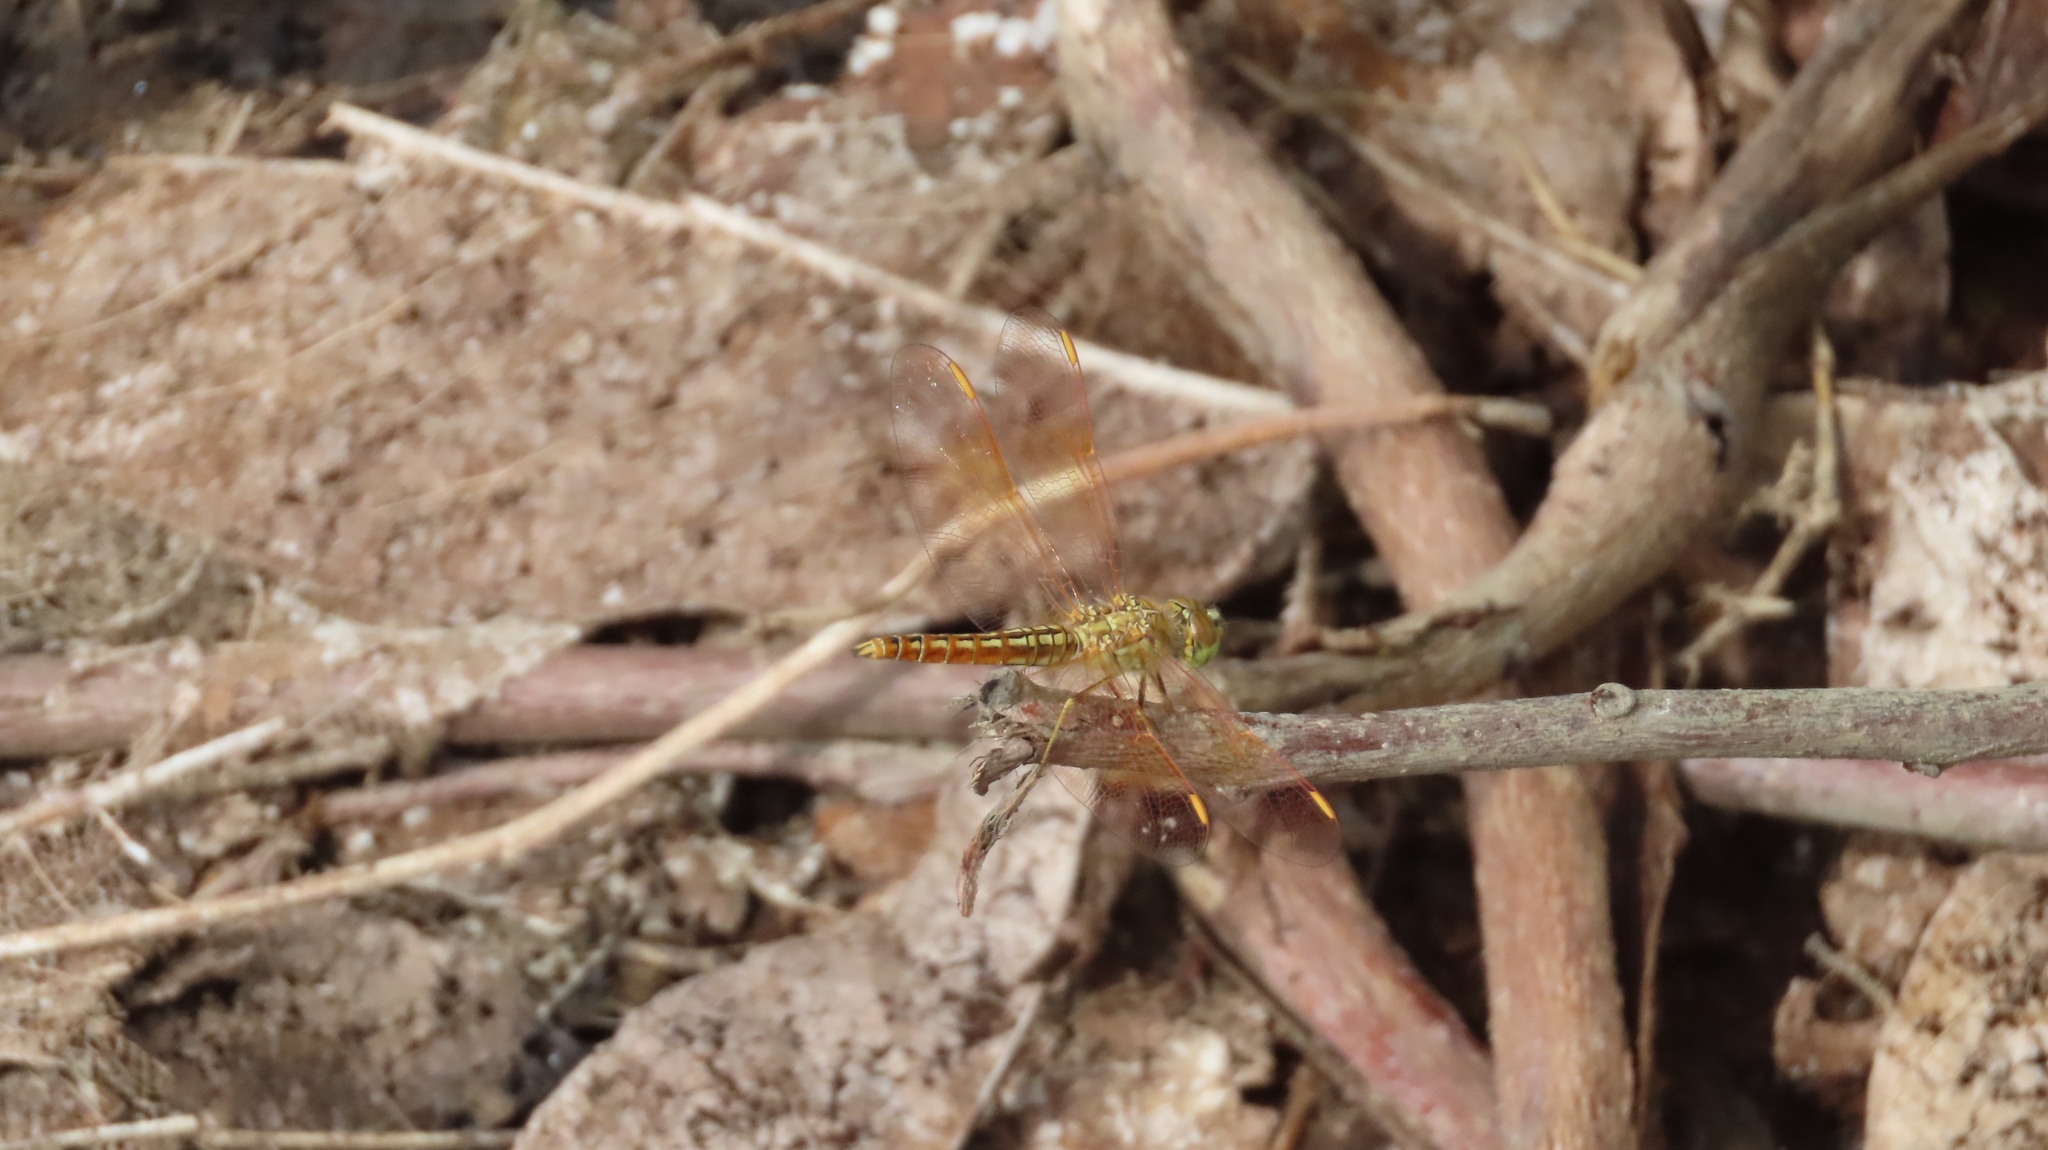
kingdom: Animalia
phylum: Arthropoda
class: Insecta
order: Odonata
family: Libellulidae
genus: Brachythemis
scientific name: Brachythemis contaminata
